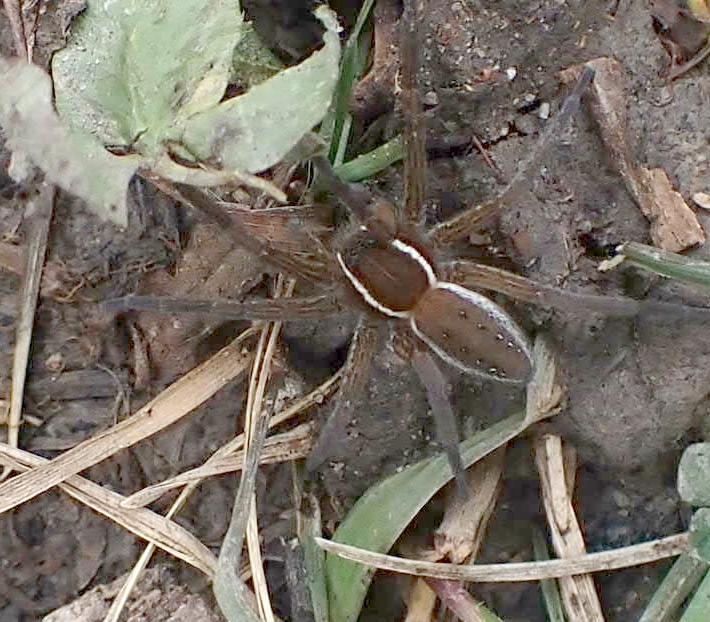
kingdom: Animalia
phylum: Arthropoda
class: Arachnida
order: Araneae
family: Pisauridae
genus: Dolomedes
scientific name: Dolomedes triton
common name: Six-spotted fishing spider
